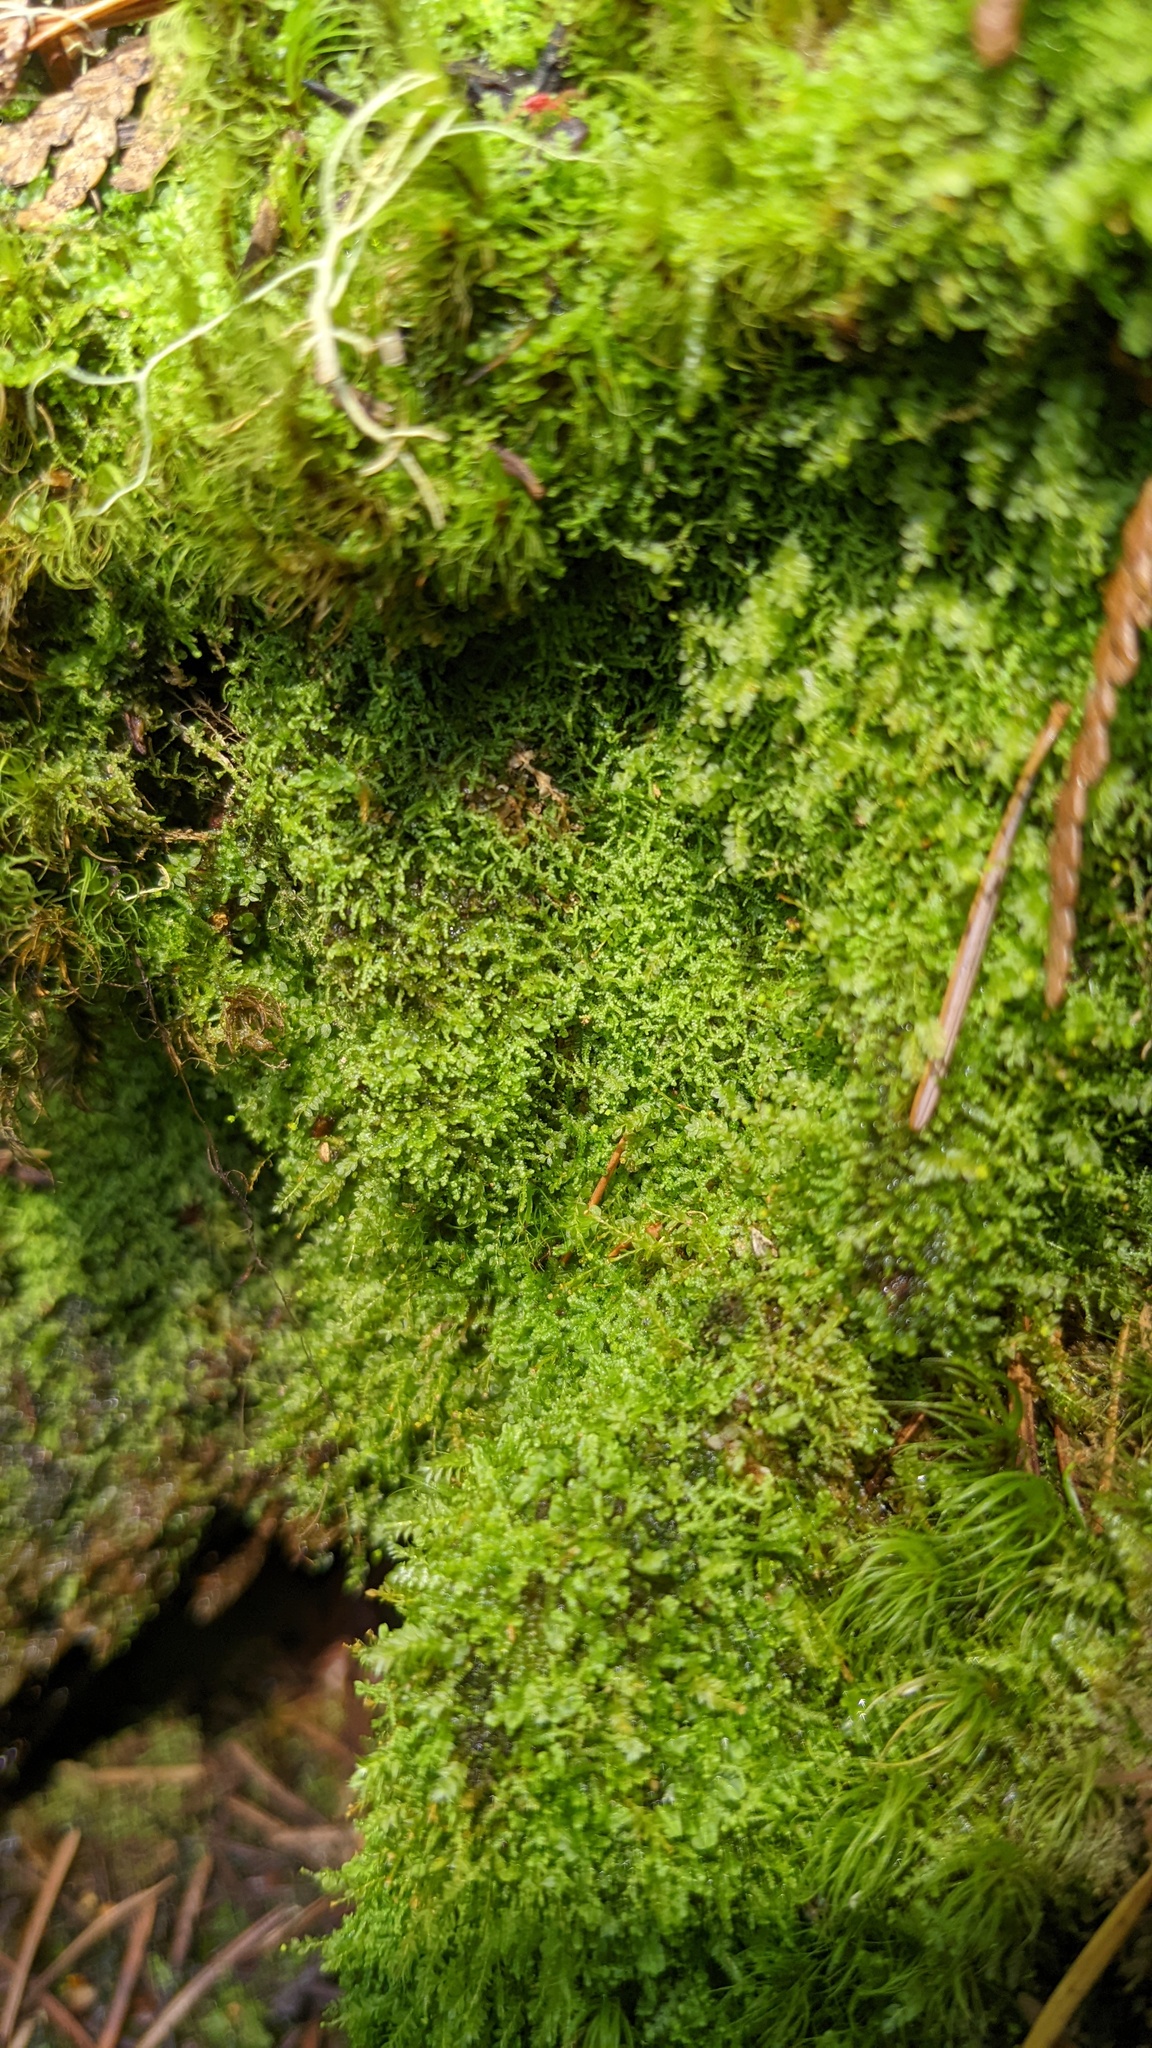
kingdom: Plantae
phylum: Marchantiophyta
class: Jungermanniopsida
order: Jungermanniales
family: Lepidoziaceae
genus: Lepidozia
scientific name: Lepidozia reptans
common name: Creeping fingerwort
